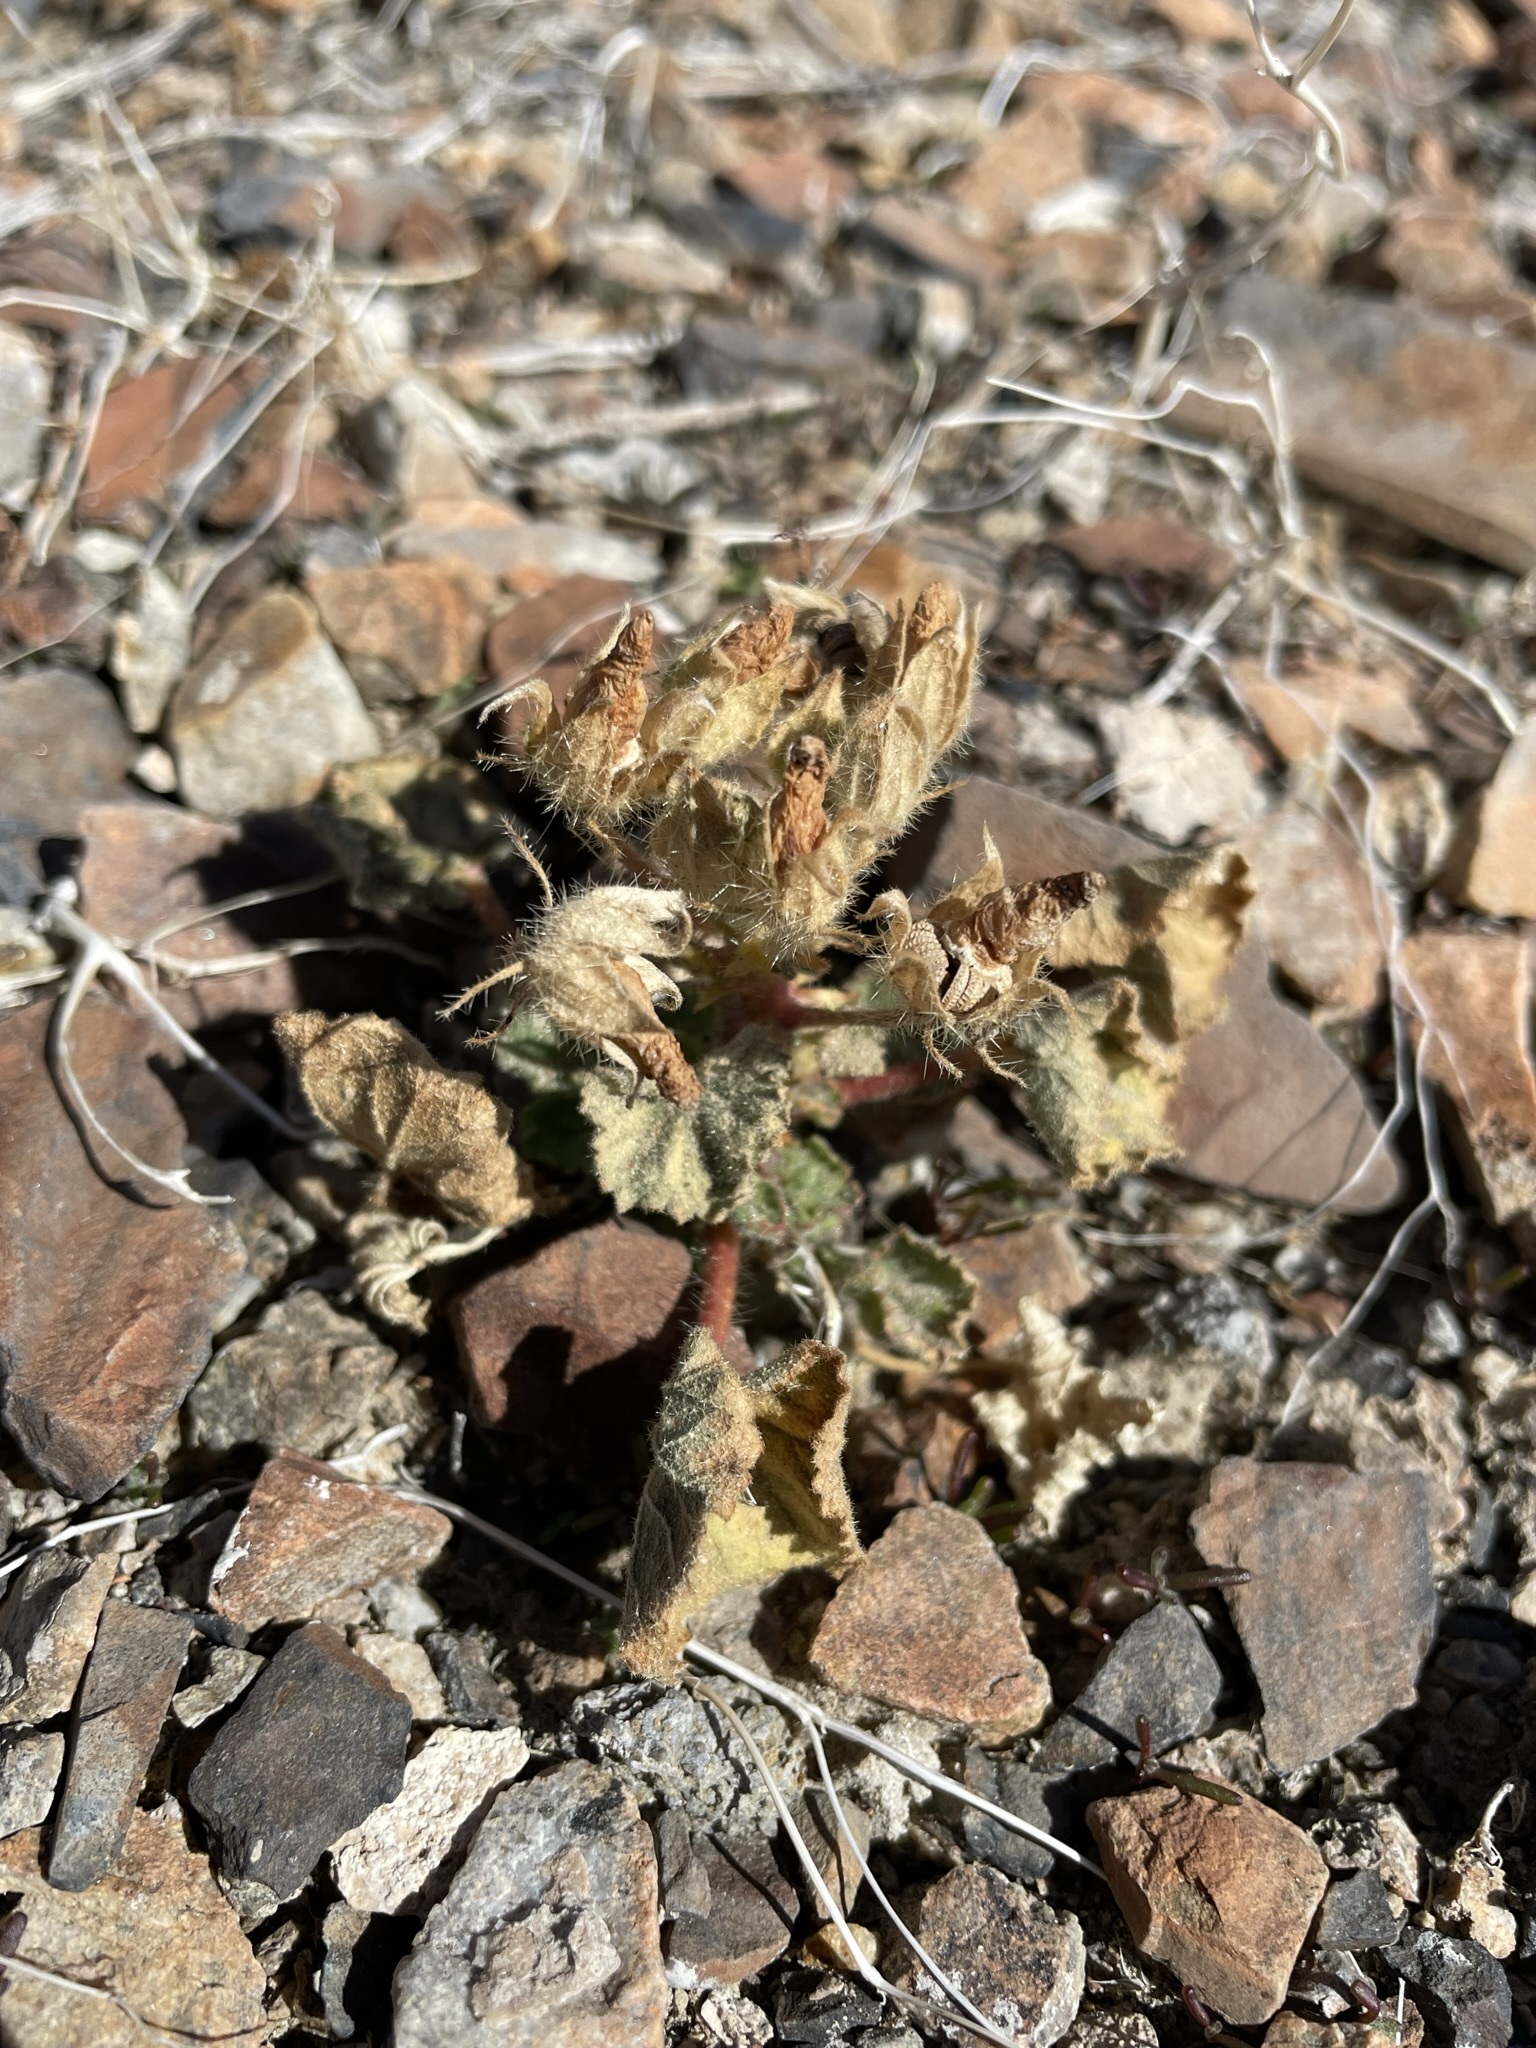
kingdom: Plantae
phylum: Tracheophyta
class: Magnoliopsida
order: Malvales
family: Malvaceae
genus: Eremalche
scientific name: Eremalche rotundifolia
